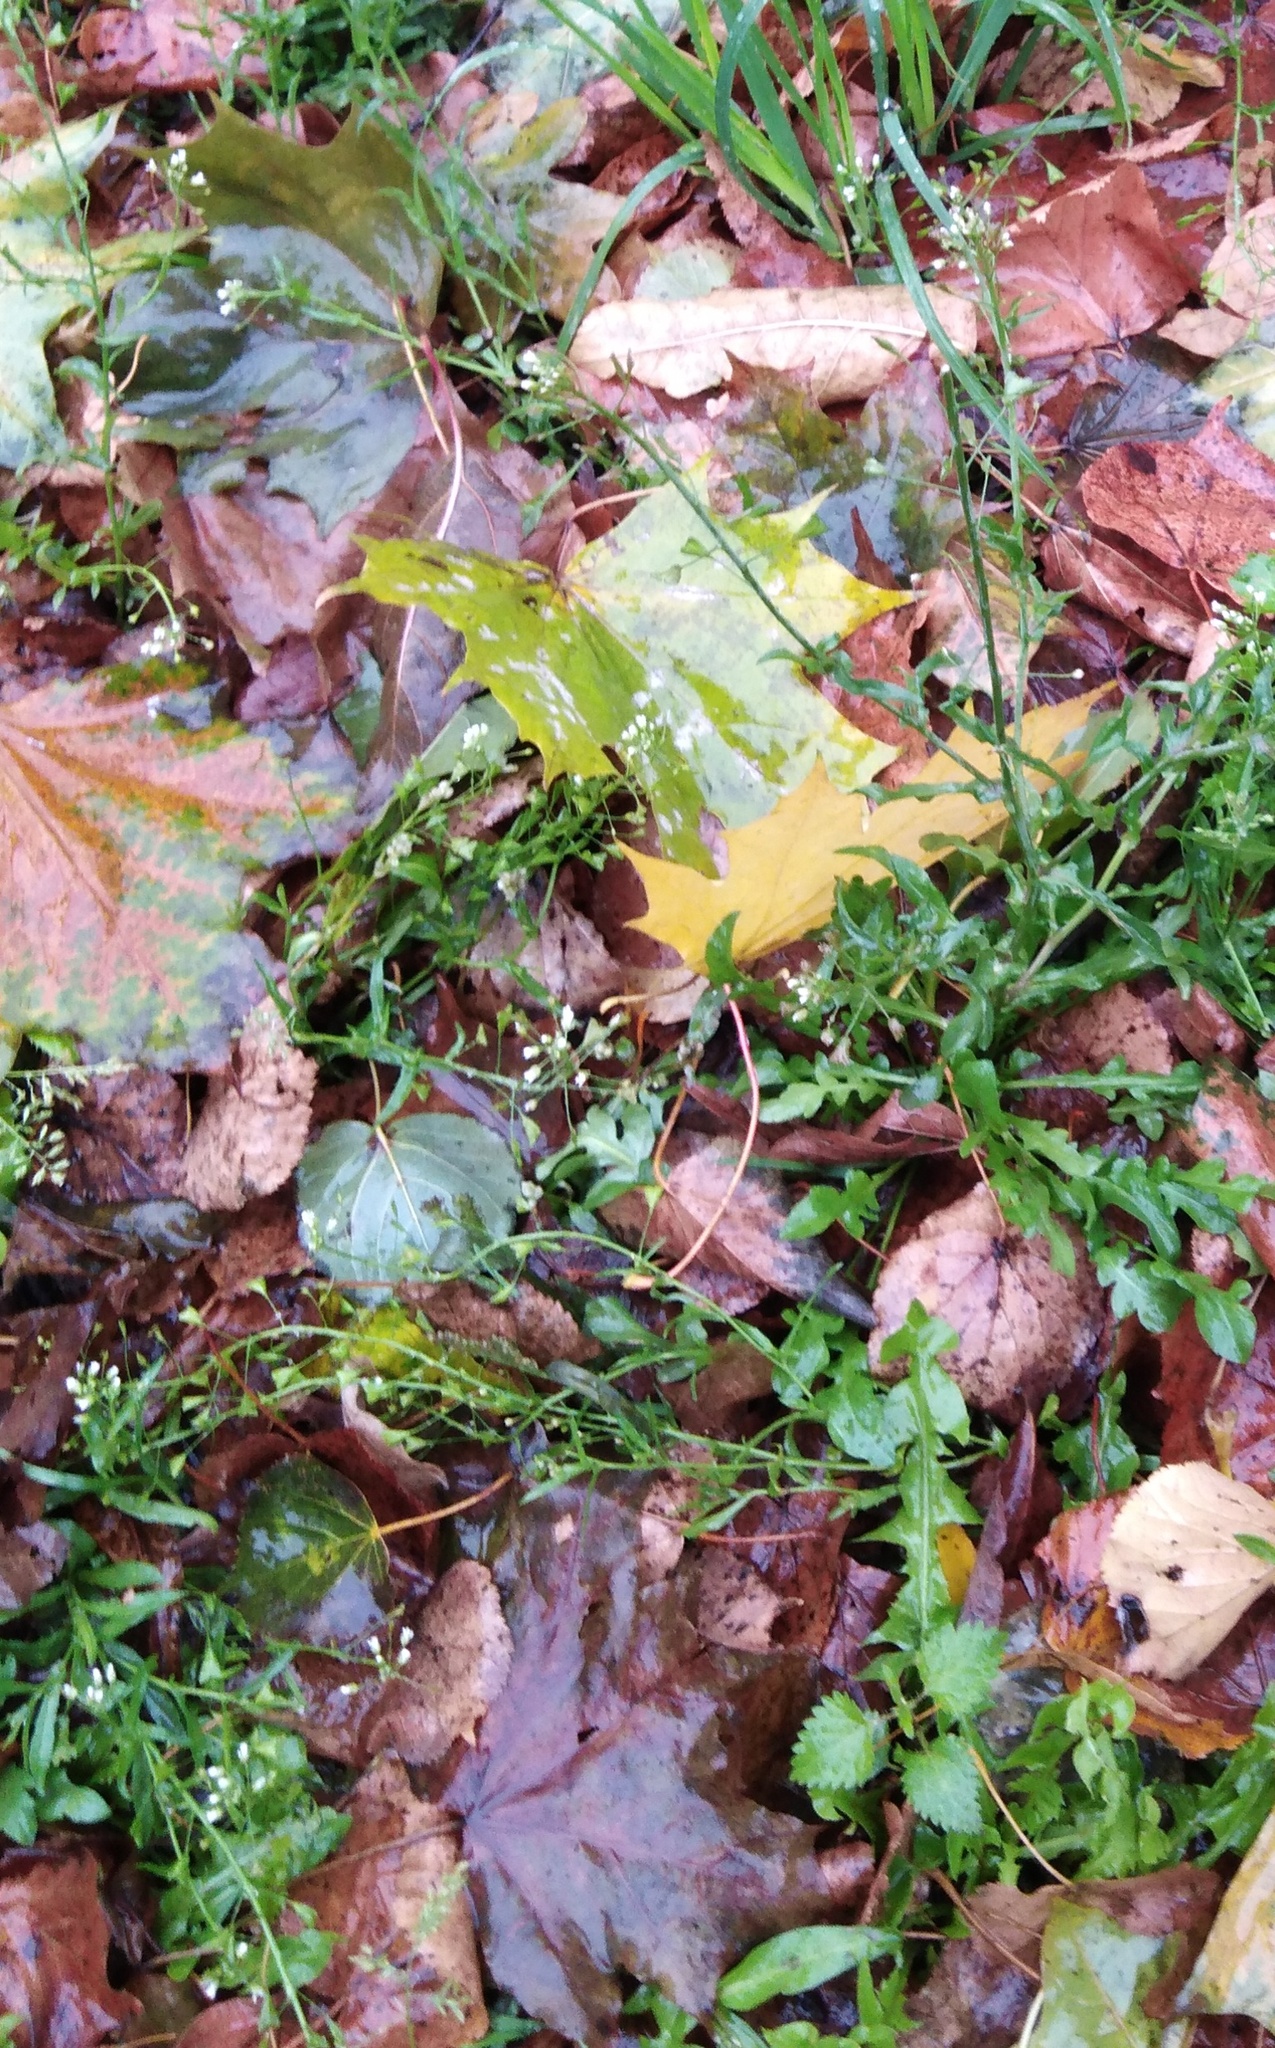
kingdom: Plantae
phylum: Tracheophyta
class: Magnoliopsida
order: Brassicales
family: Brassicaceae
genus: Capsella
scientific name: Capsella bursa-pastoris
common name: Shepherd's purse
